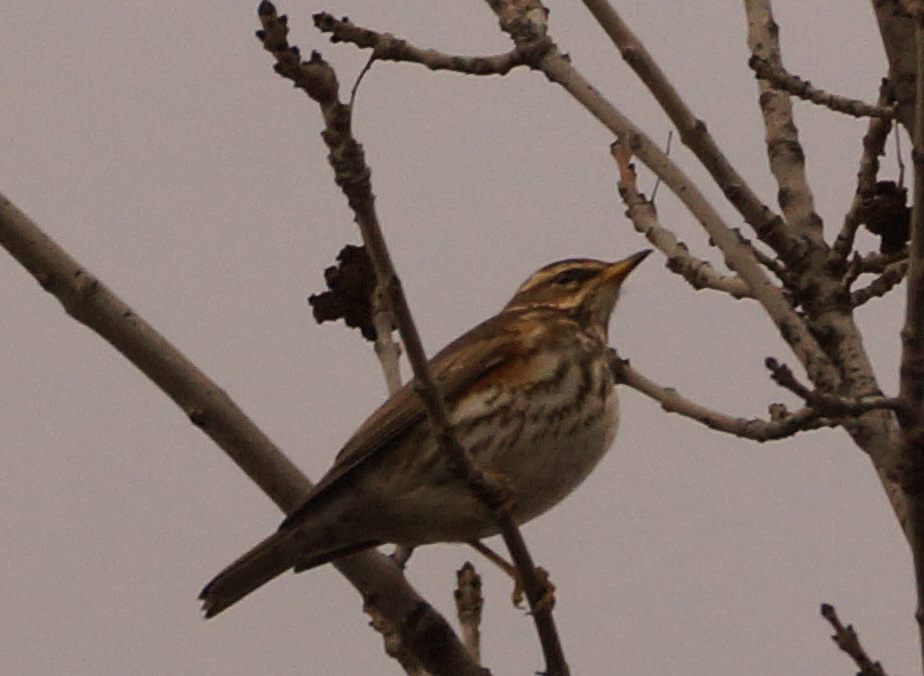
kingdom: Animalia
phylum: Chordata
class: Aves
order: Passeriformes
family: Turdidae
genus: Turdus
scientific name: Turdus iliacus
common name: Redwing
